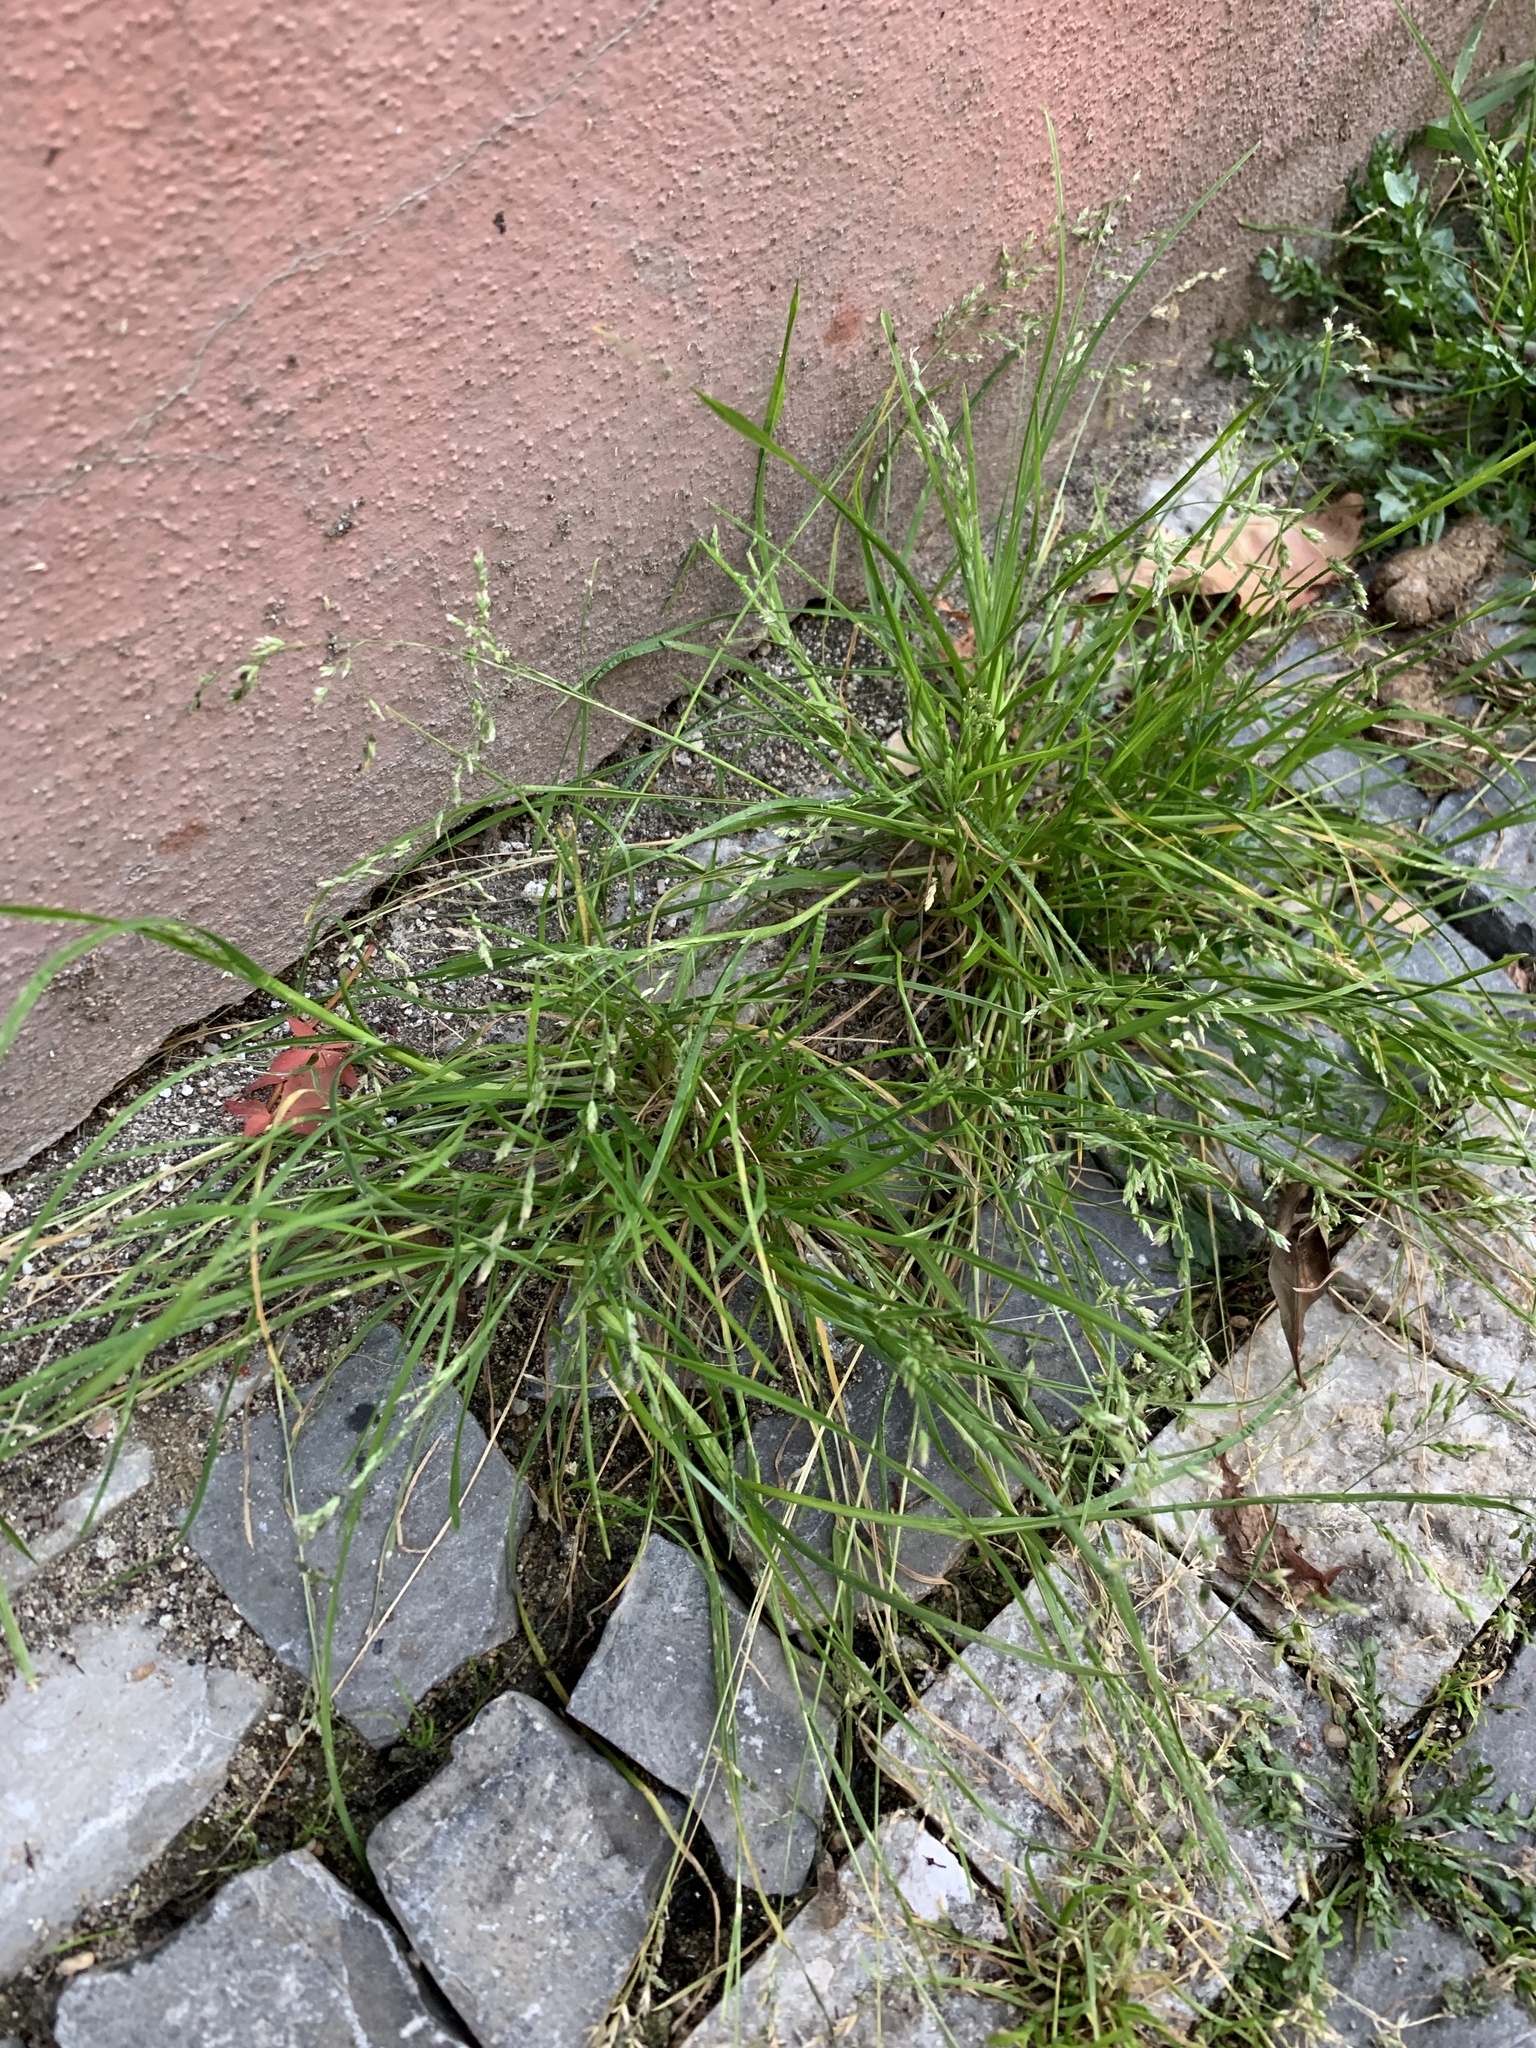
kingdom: Plantae
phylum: Tracheophyta
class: Liliopsida
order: Poales
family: Poaceae
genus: Poa
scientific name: Poa annua
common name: Annual bluegrass
